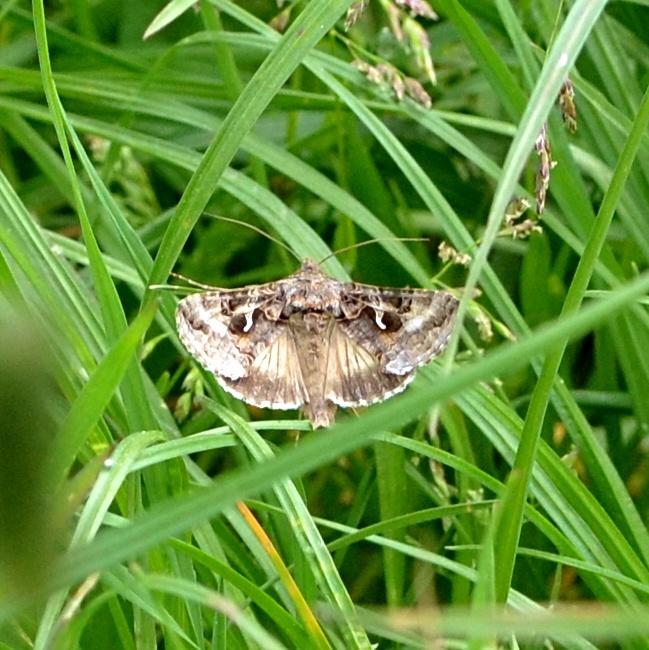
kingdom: Animalia
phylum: Arthropoda
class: Insecta
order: Lepidoptera
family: Noctuidae
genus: Autographa
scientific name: Autographa gamma
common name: Silver y
